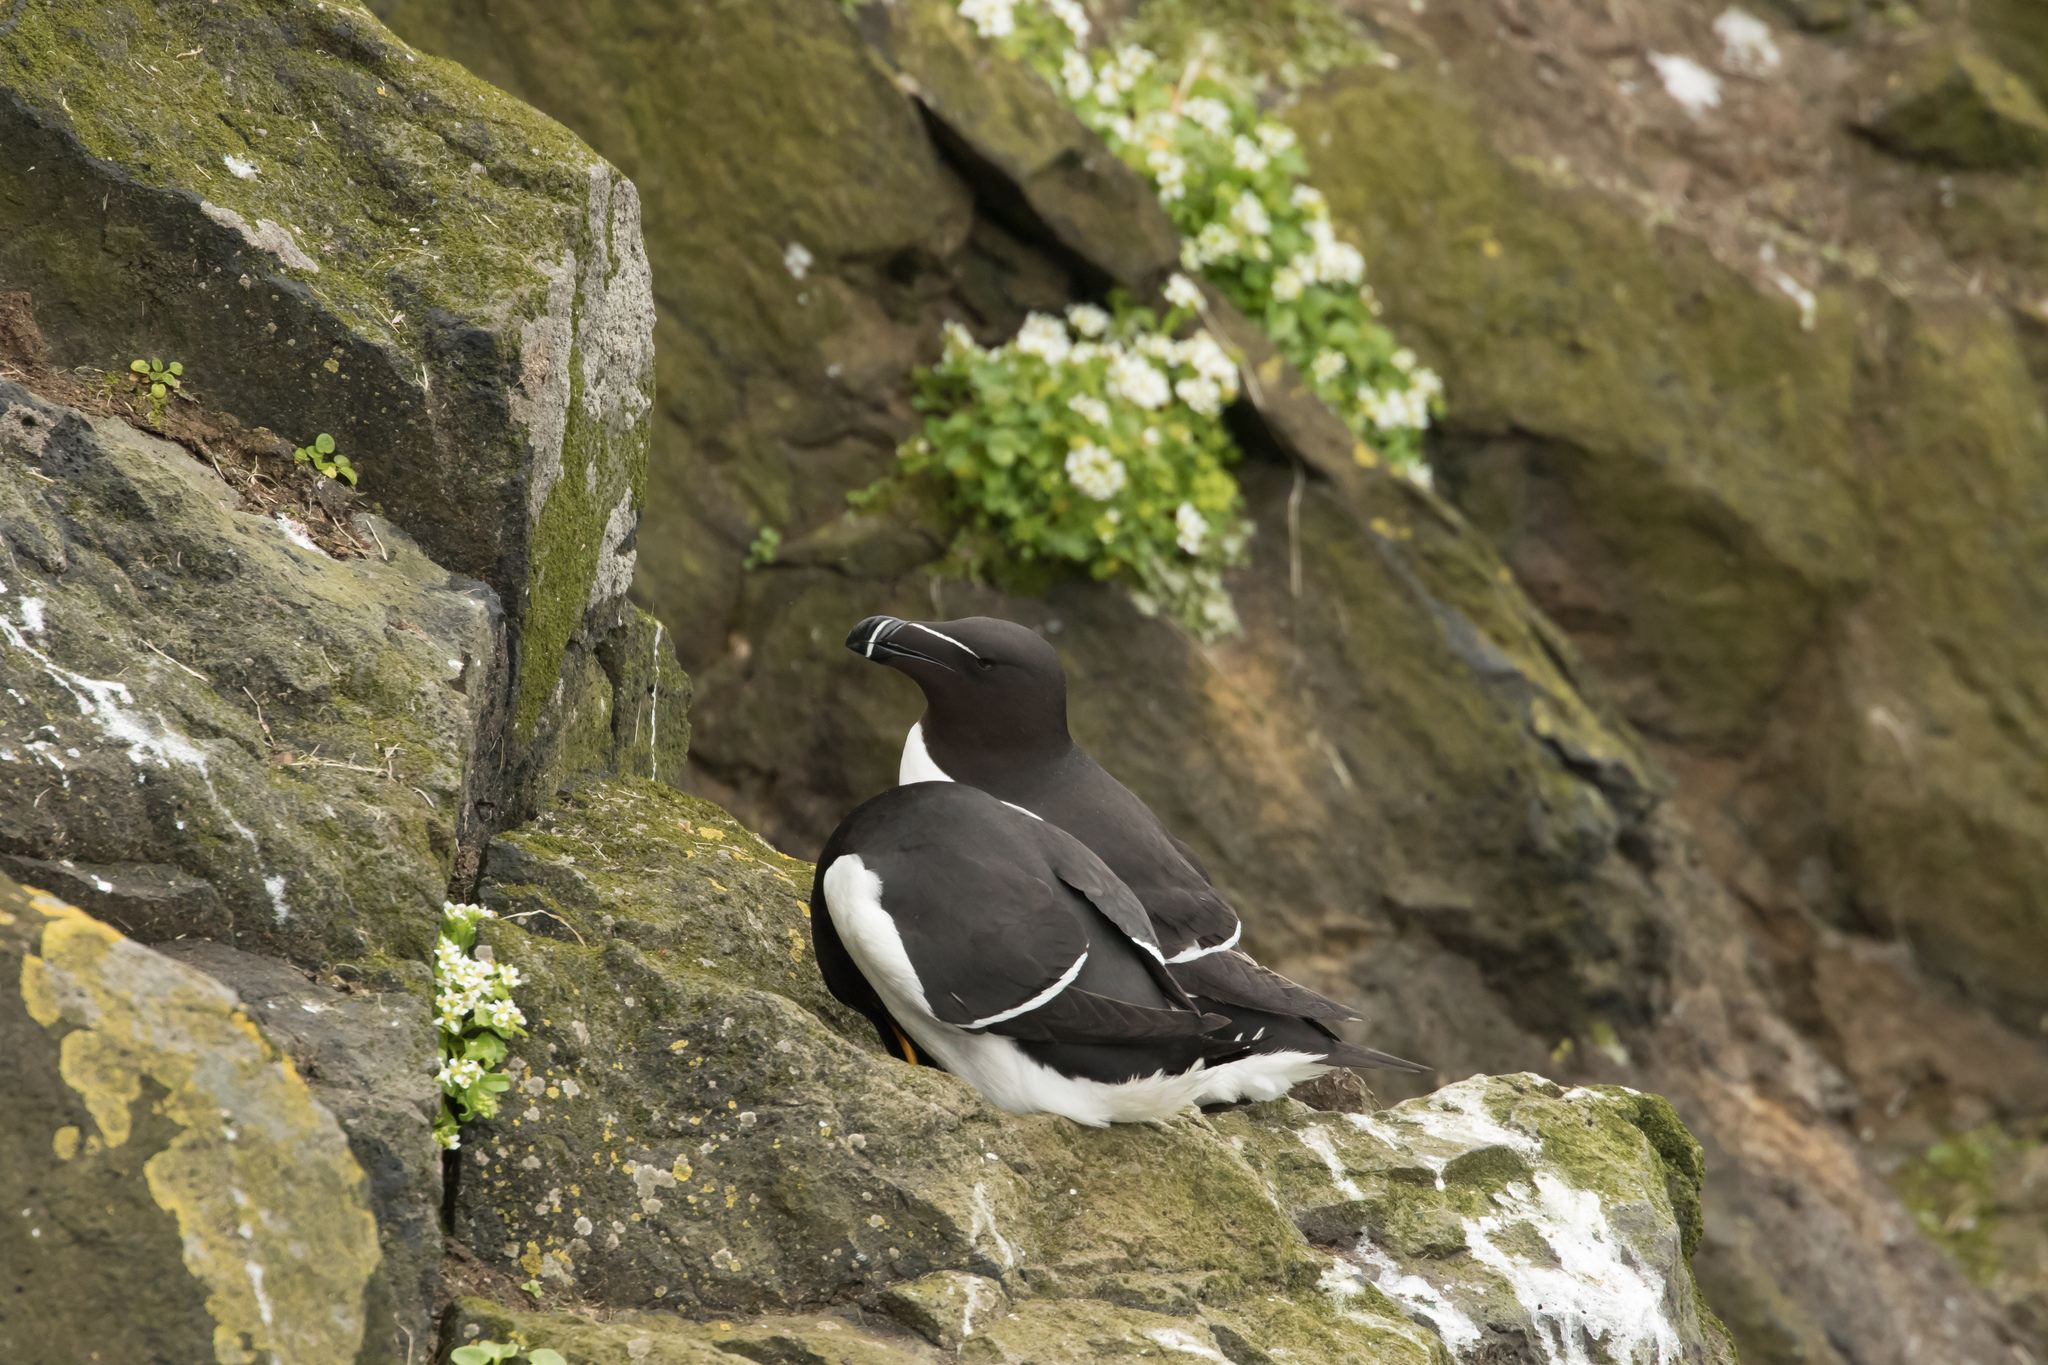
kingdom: Animalia
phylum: Chordata
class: Aves
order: Charadriiformes
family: Alcidae
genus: Alca
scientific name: Alca torda
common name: Razorbill
